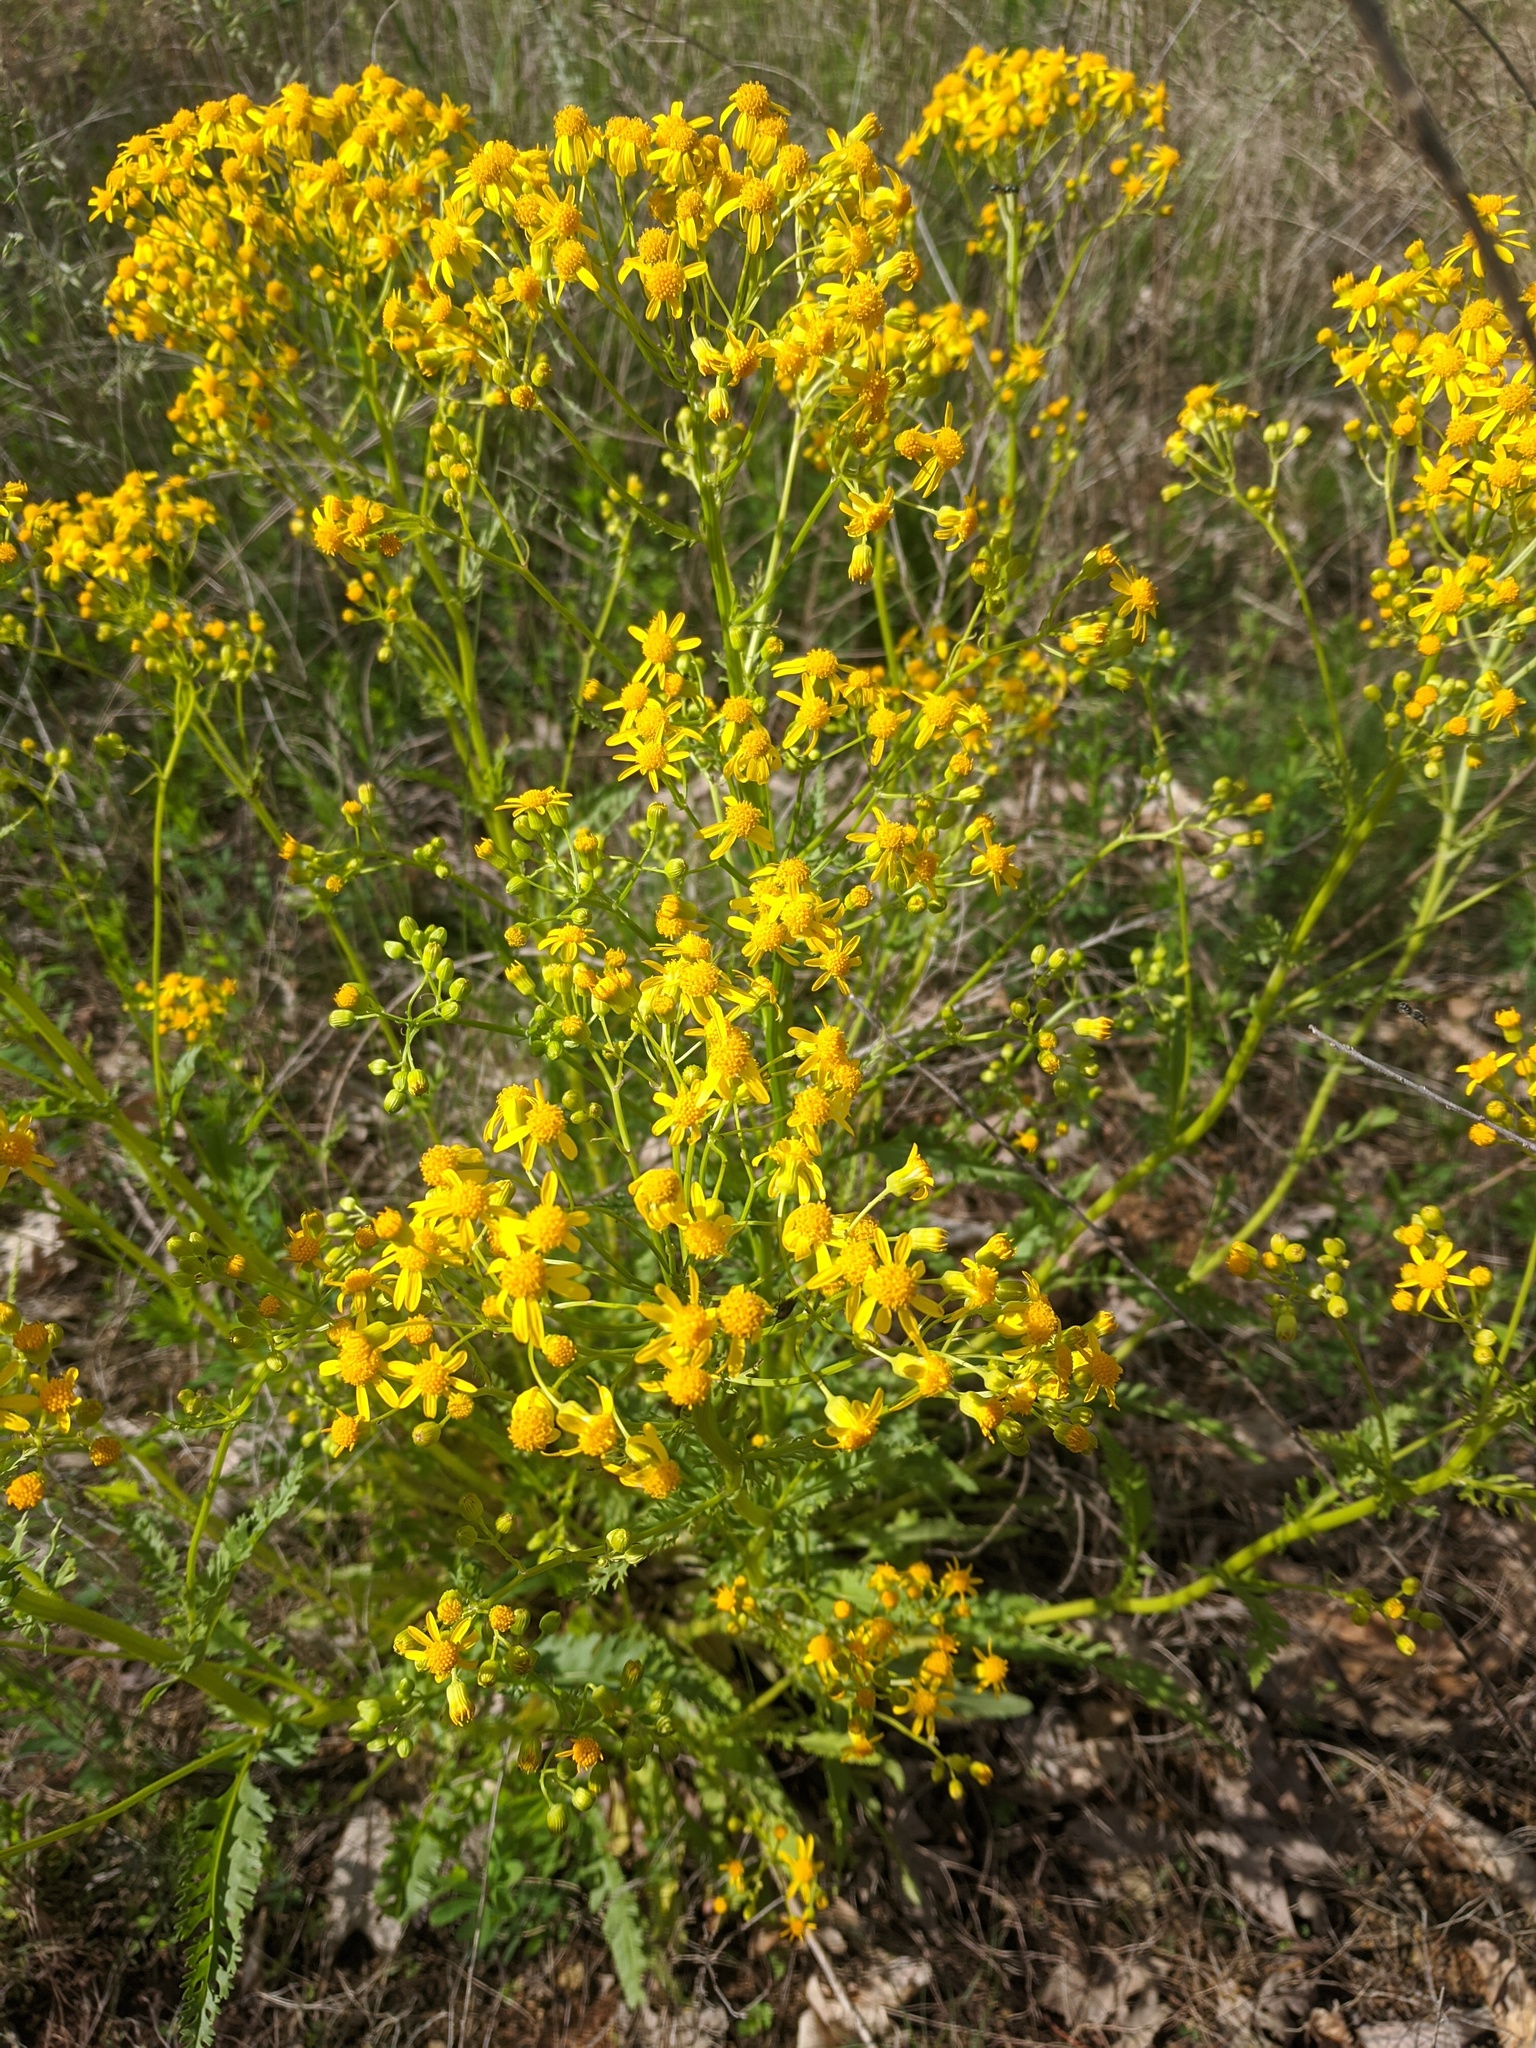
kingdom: Plantae
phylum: Tracheophyta
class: Magnoliopsida
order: Asterales
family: Asteraceae
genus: Packera
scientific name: Packera anonyma
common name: Small ragwort
